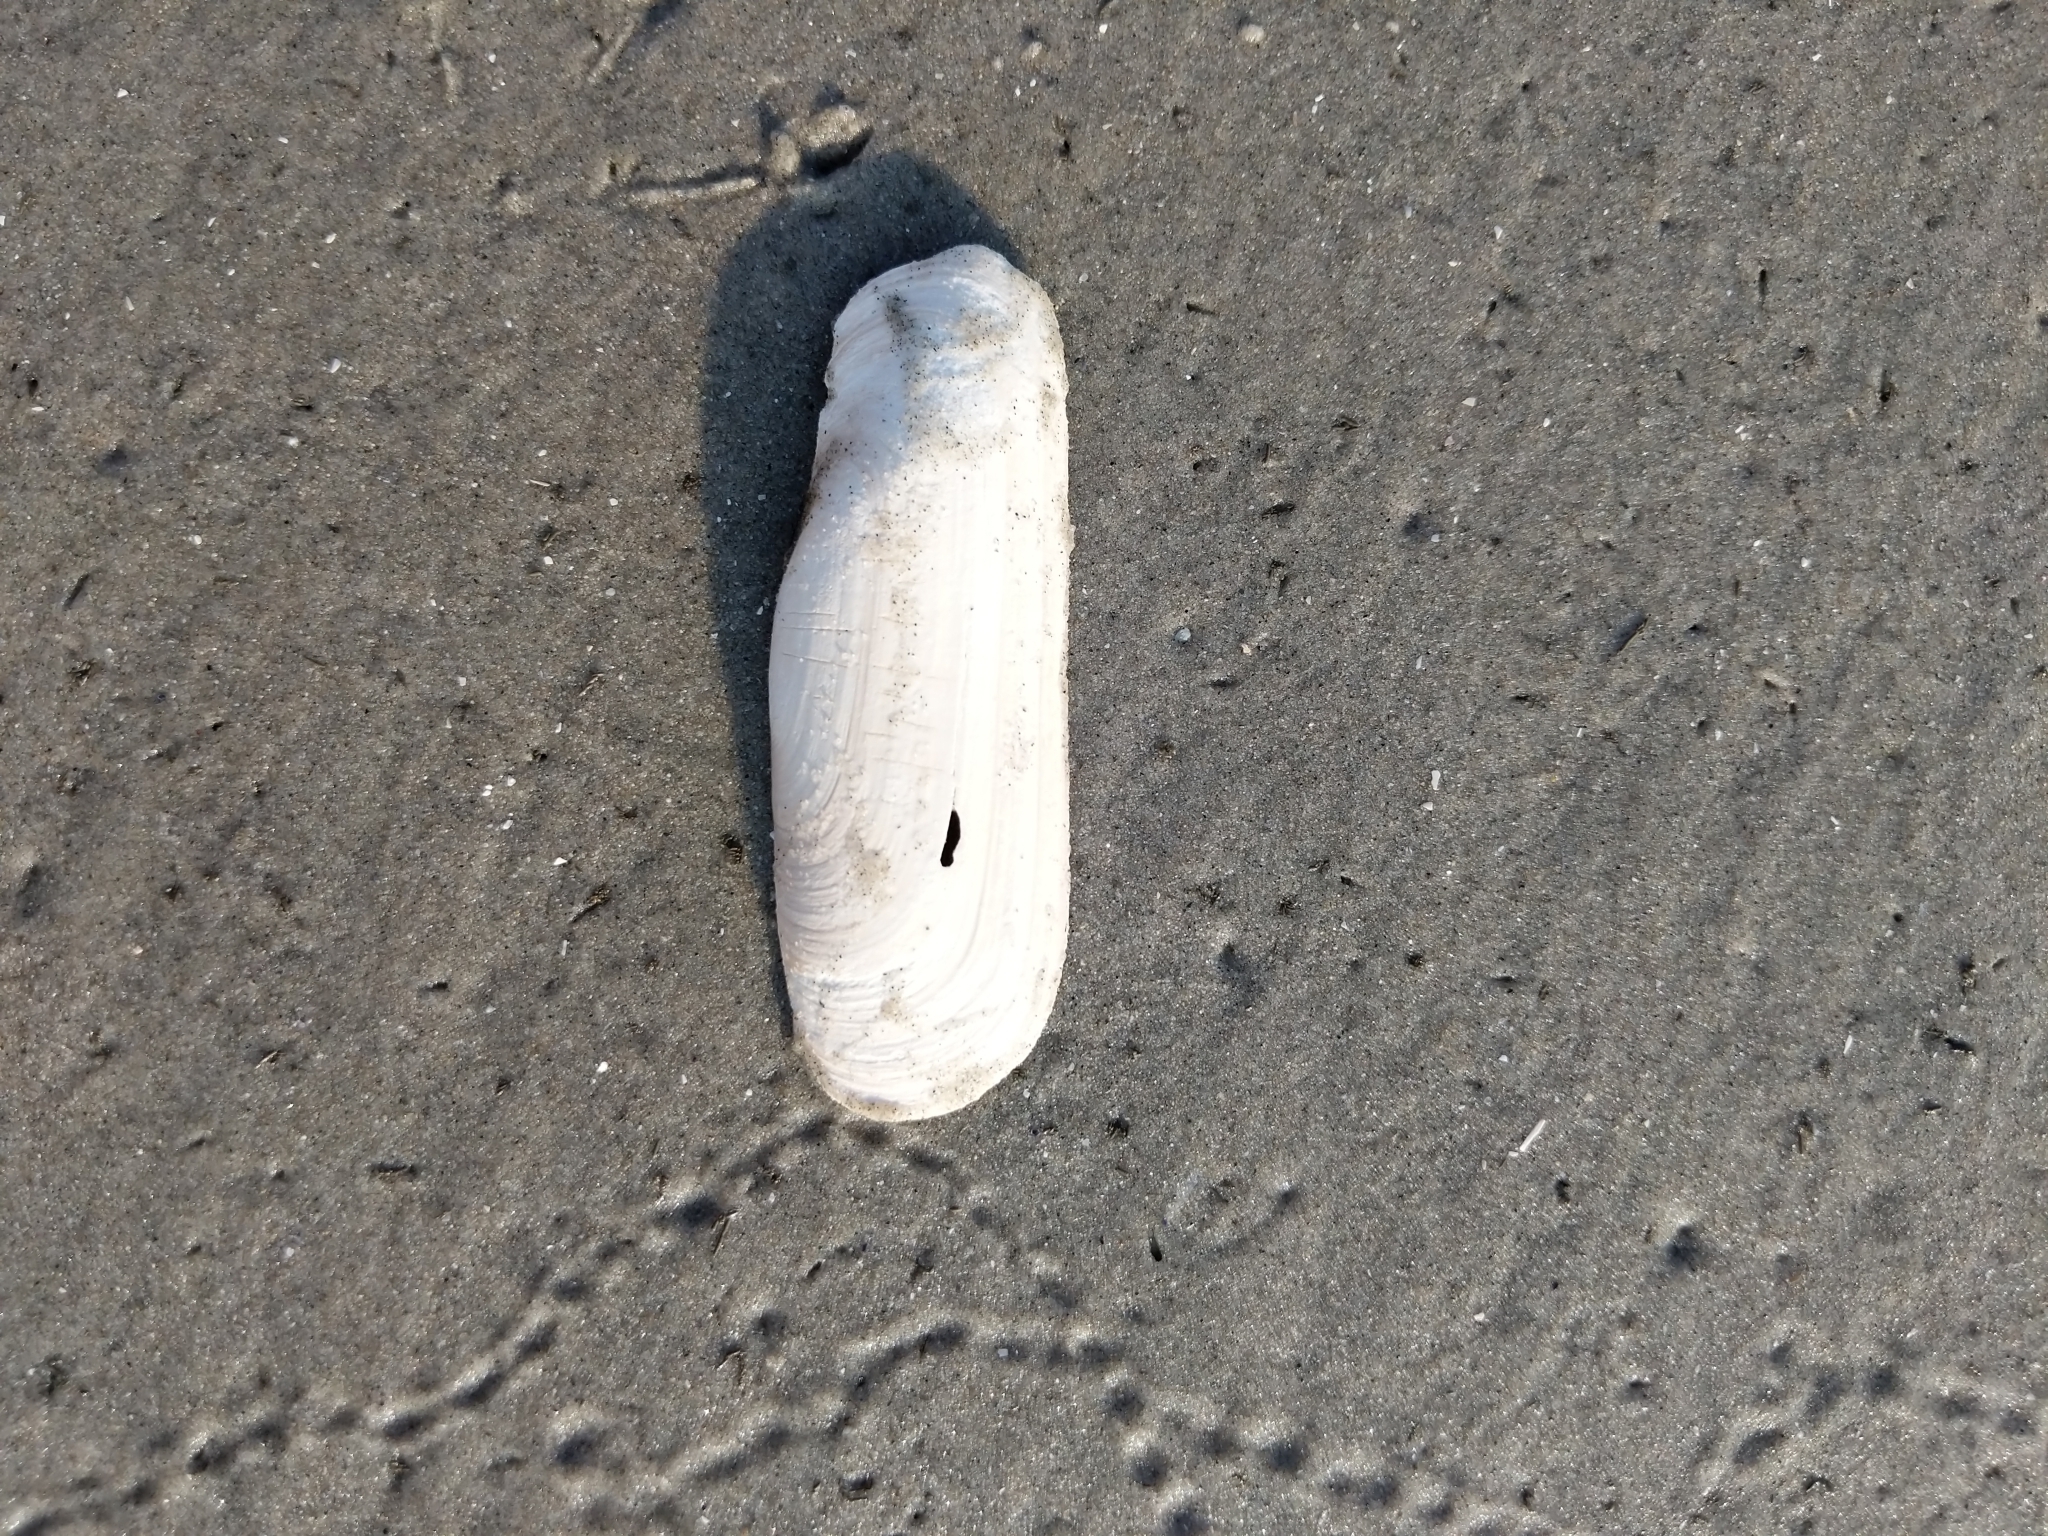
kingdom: Animalia
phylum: Mollusca
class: Bivalvia
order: Cardiida
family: Solecurtidae
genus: Tagelus
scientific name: Tagelus plebeius
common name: Stout tagelus
